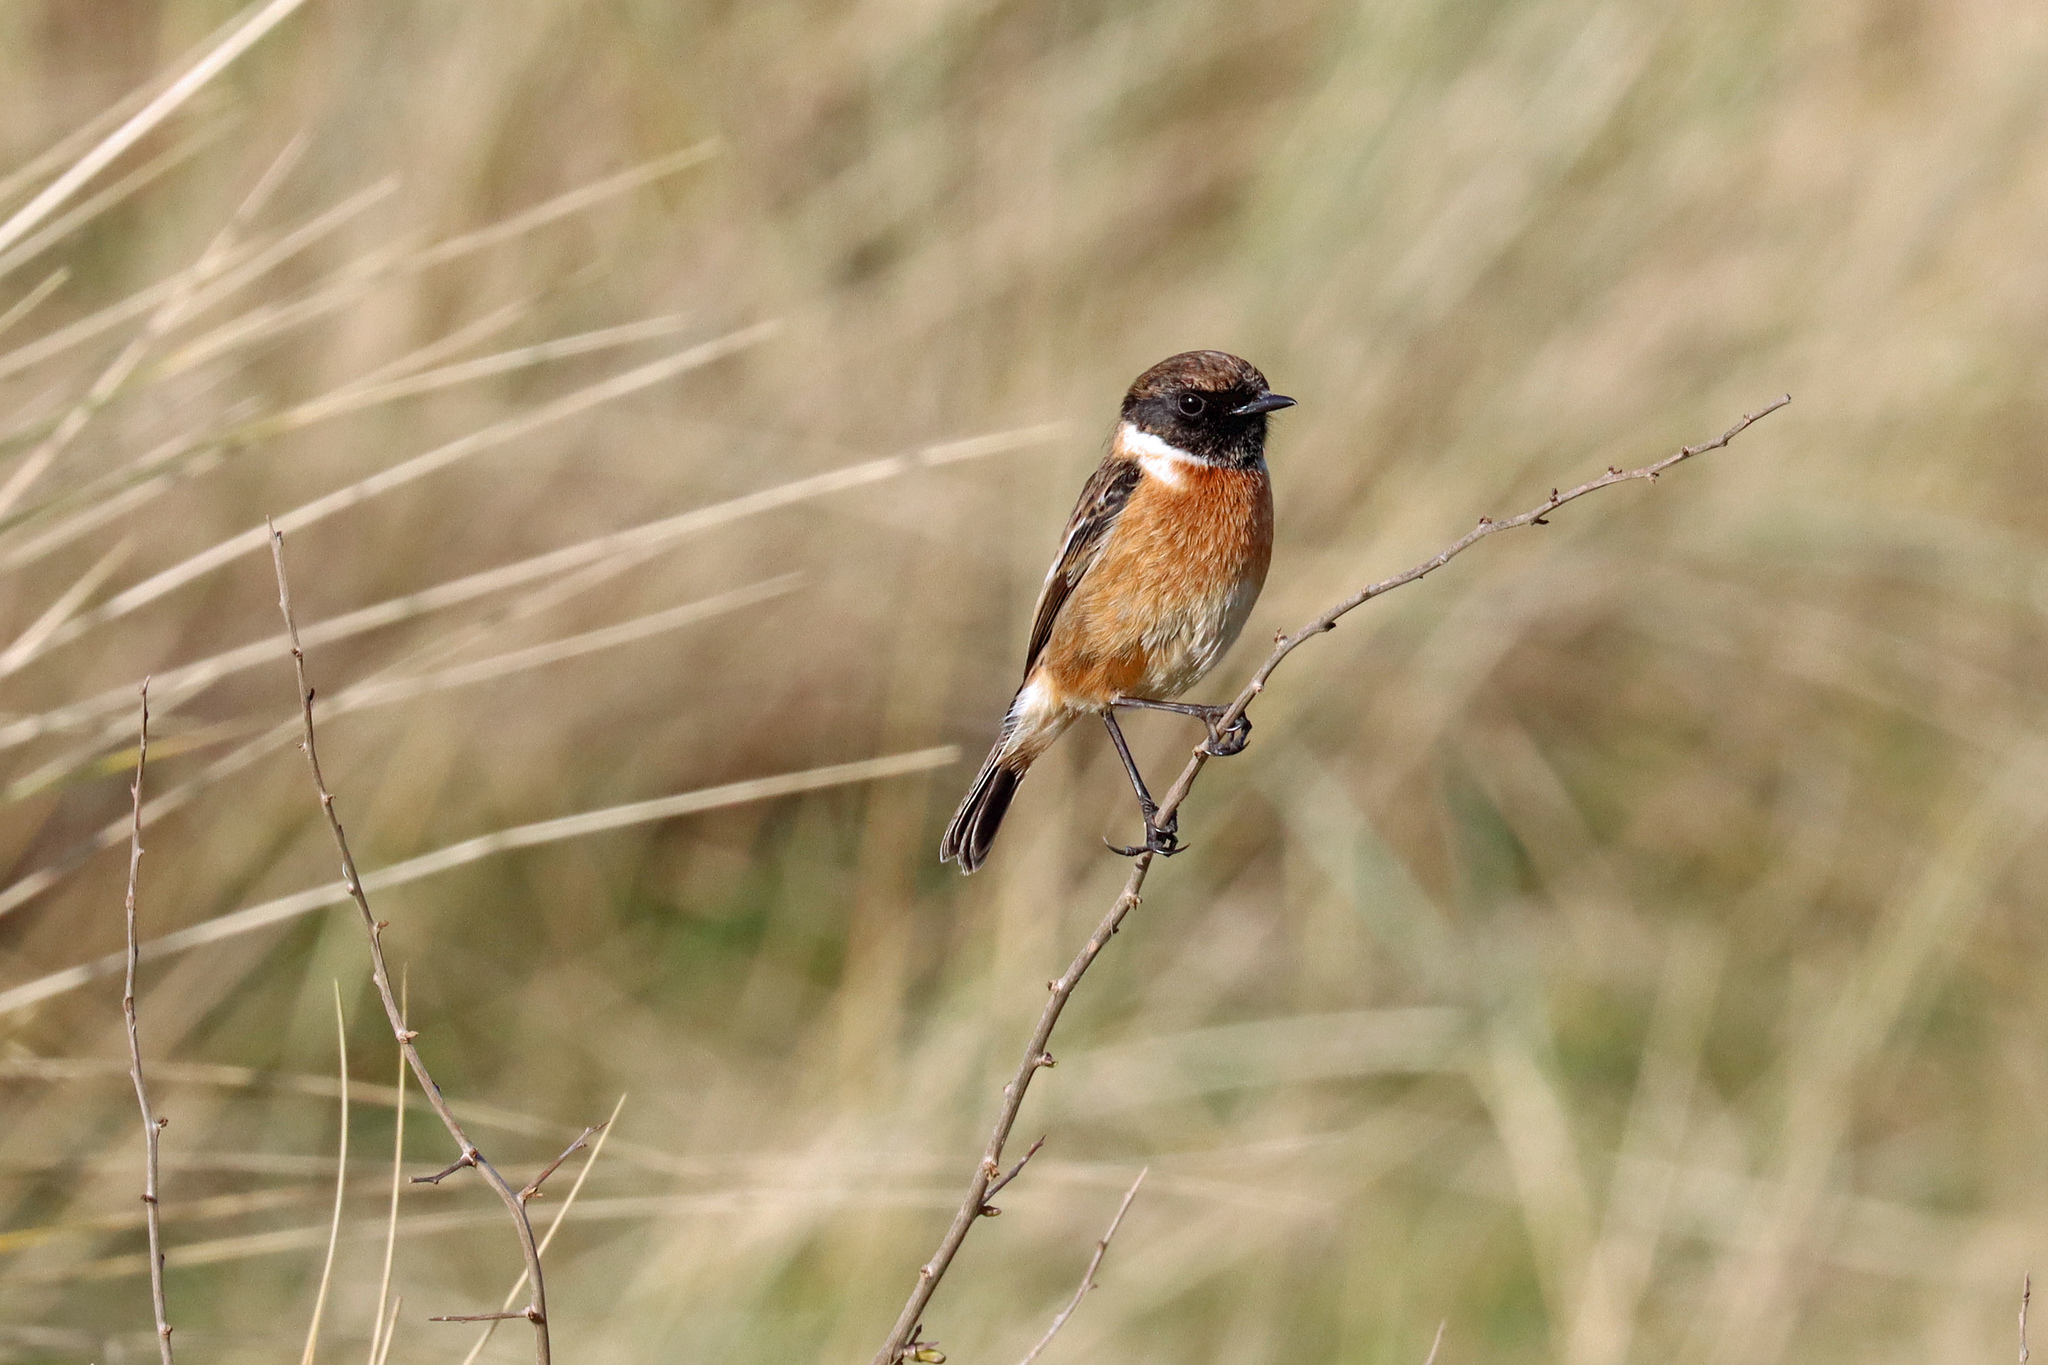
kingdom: Animalia
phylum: Chordata
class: Aves
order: Passeriformes
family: Muscicapidae
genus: Saxicola
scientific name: Saxicola rubicola
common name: European stonechat
